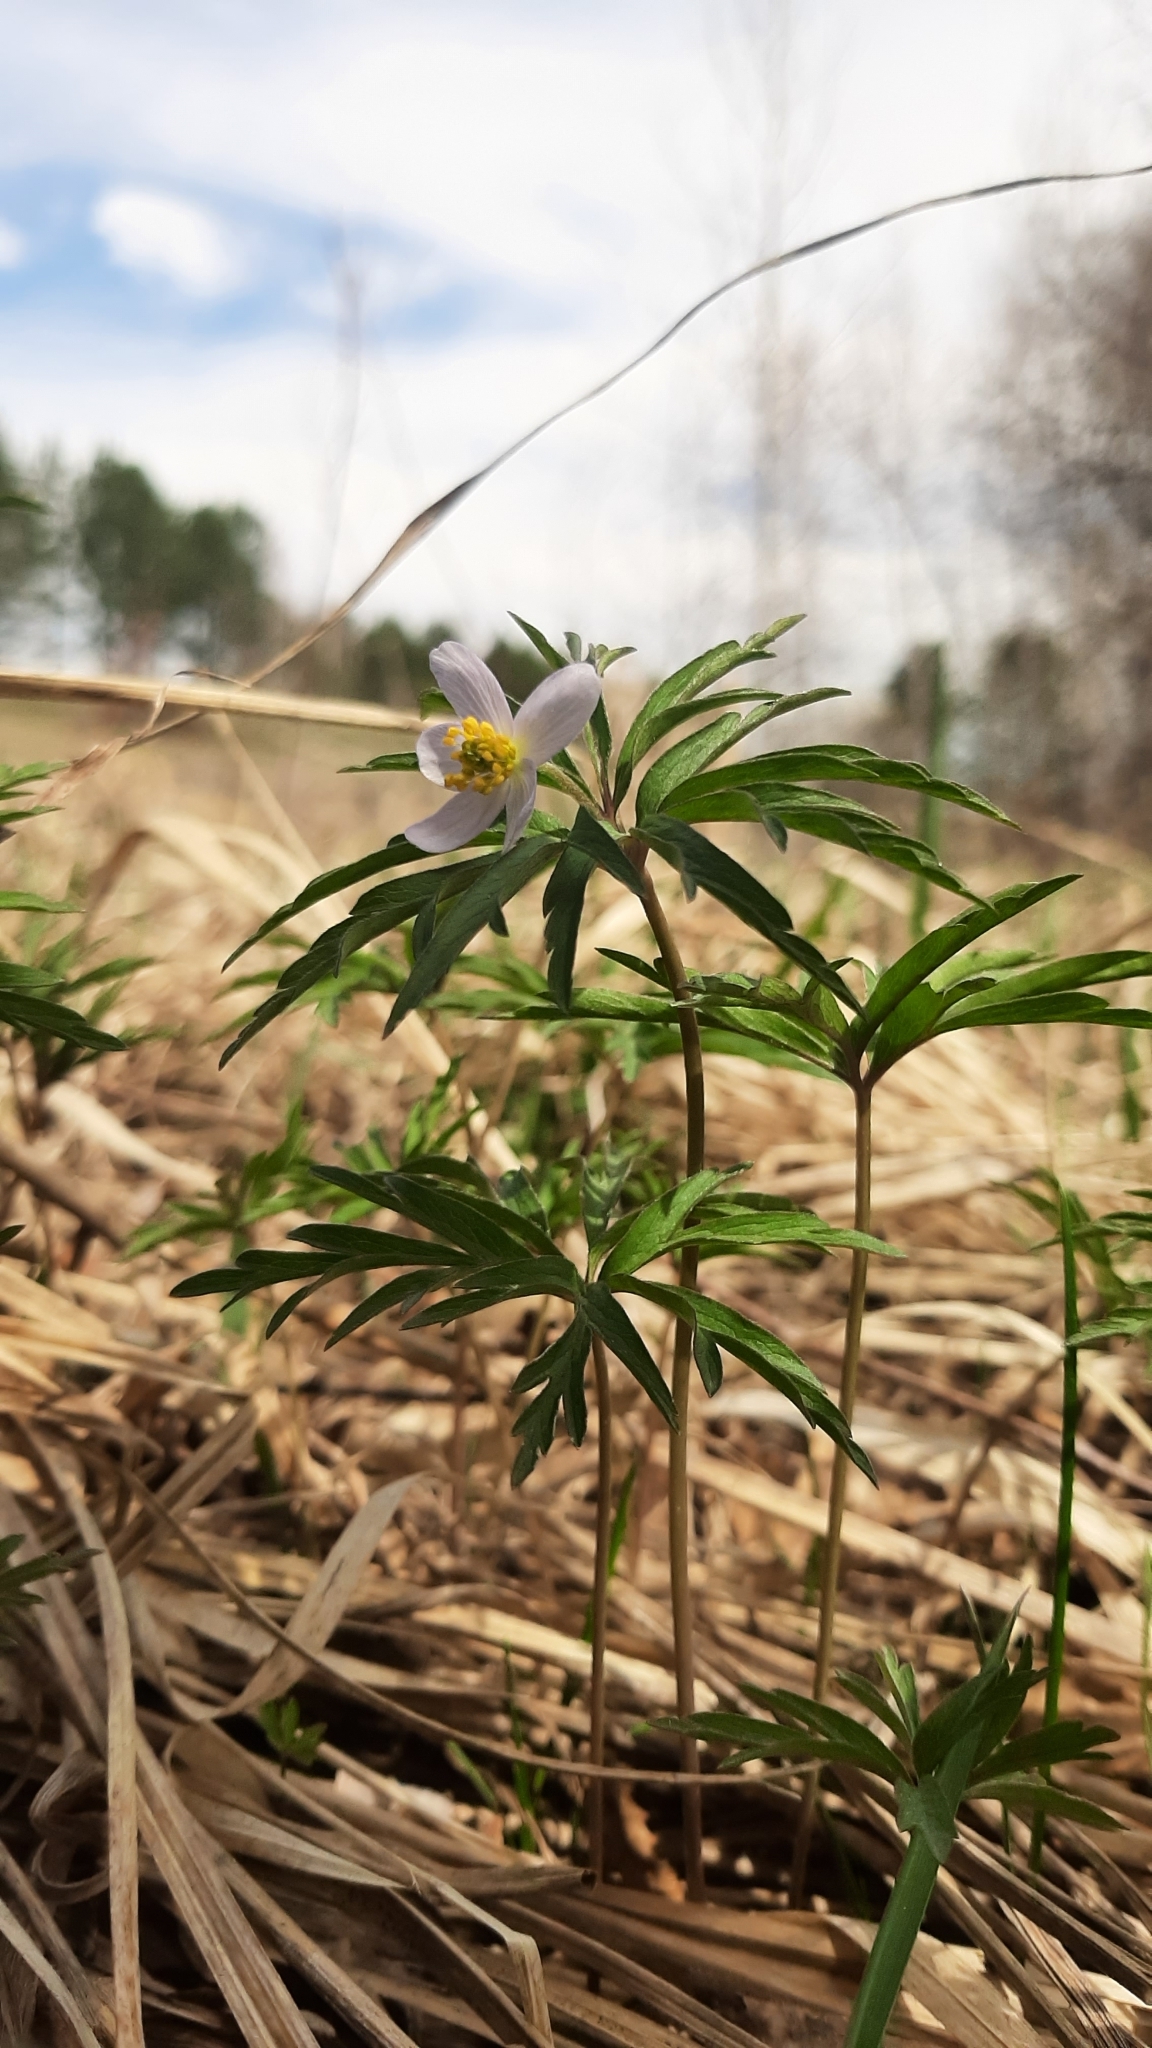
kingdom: Plantae
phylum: Tracheophyta
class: Magnoliopsida
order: Ranunculales
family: Ranunculaceae
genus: Anemone
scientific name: Anemone caerulea
